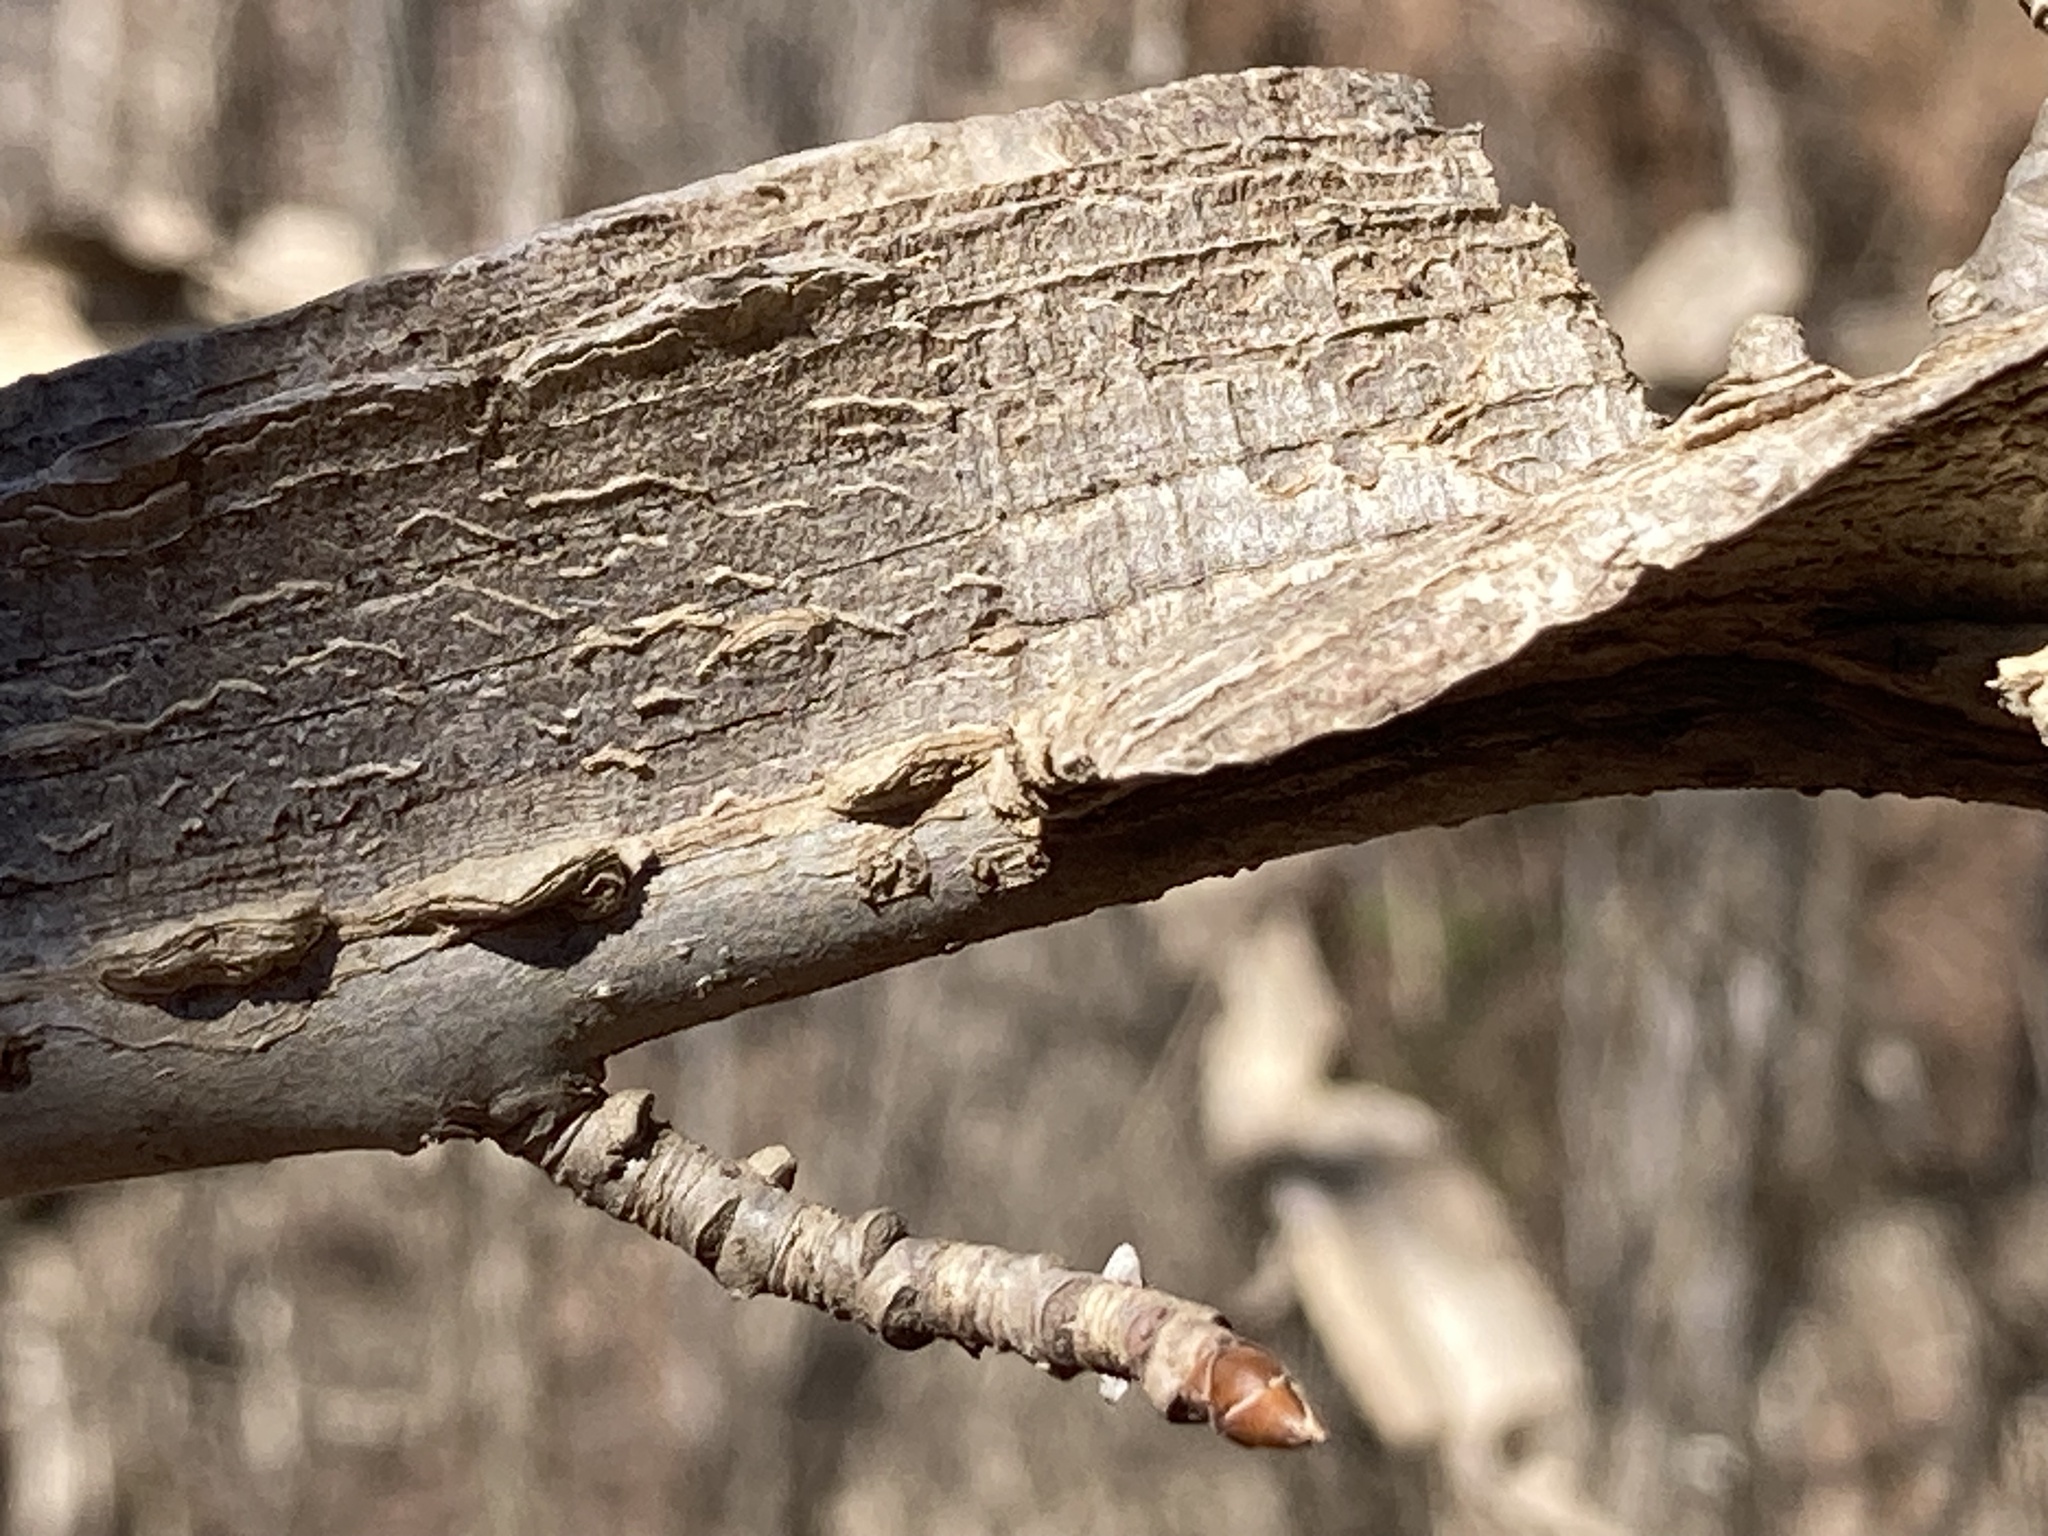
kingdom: Plantae
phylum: Tracheophyta
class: Magnoliopsida
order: Saxifragales
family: Altingiaceae
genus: Liquidambar
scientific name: Liquidambar styraciflua
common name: Sweet gum
